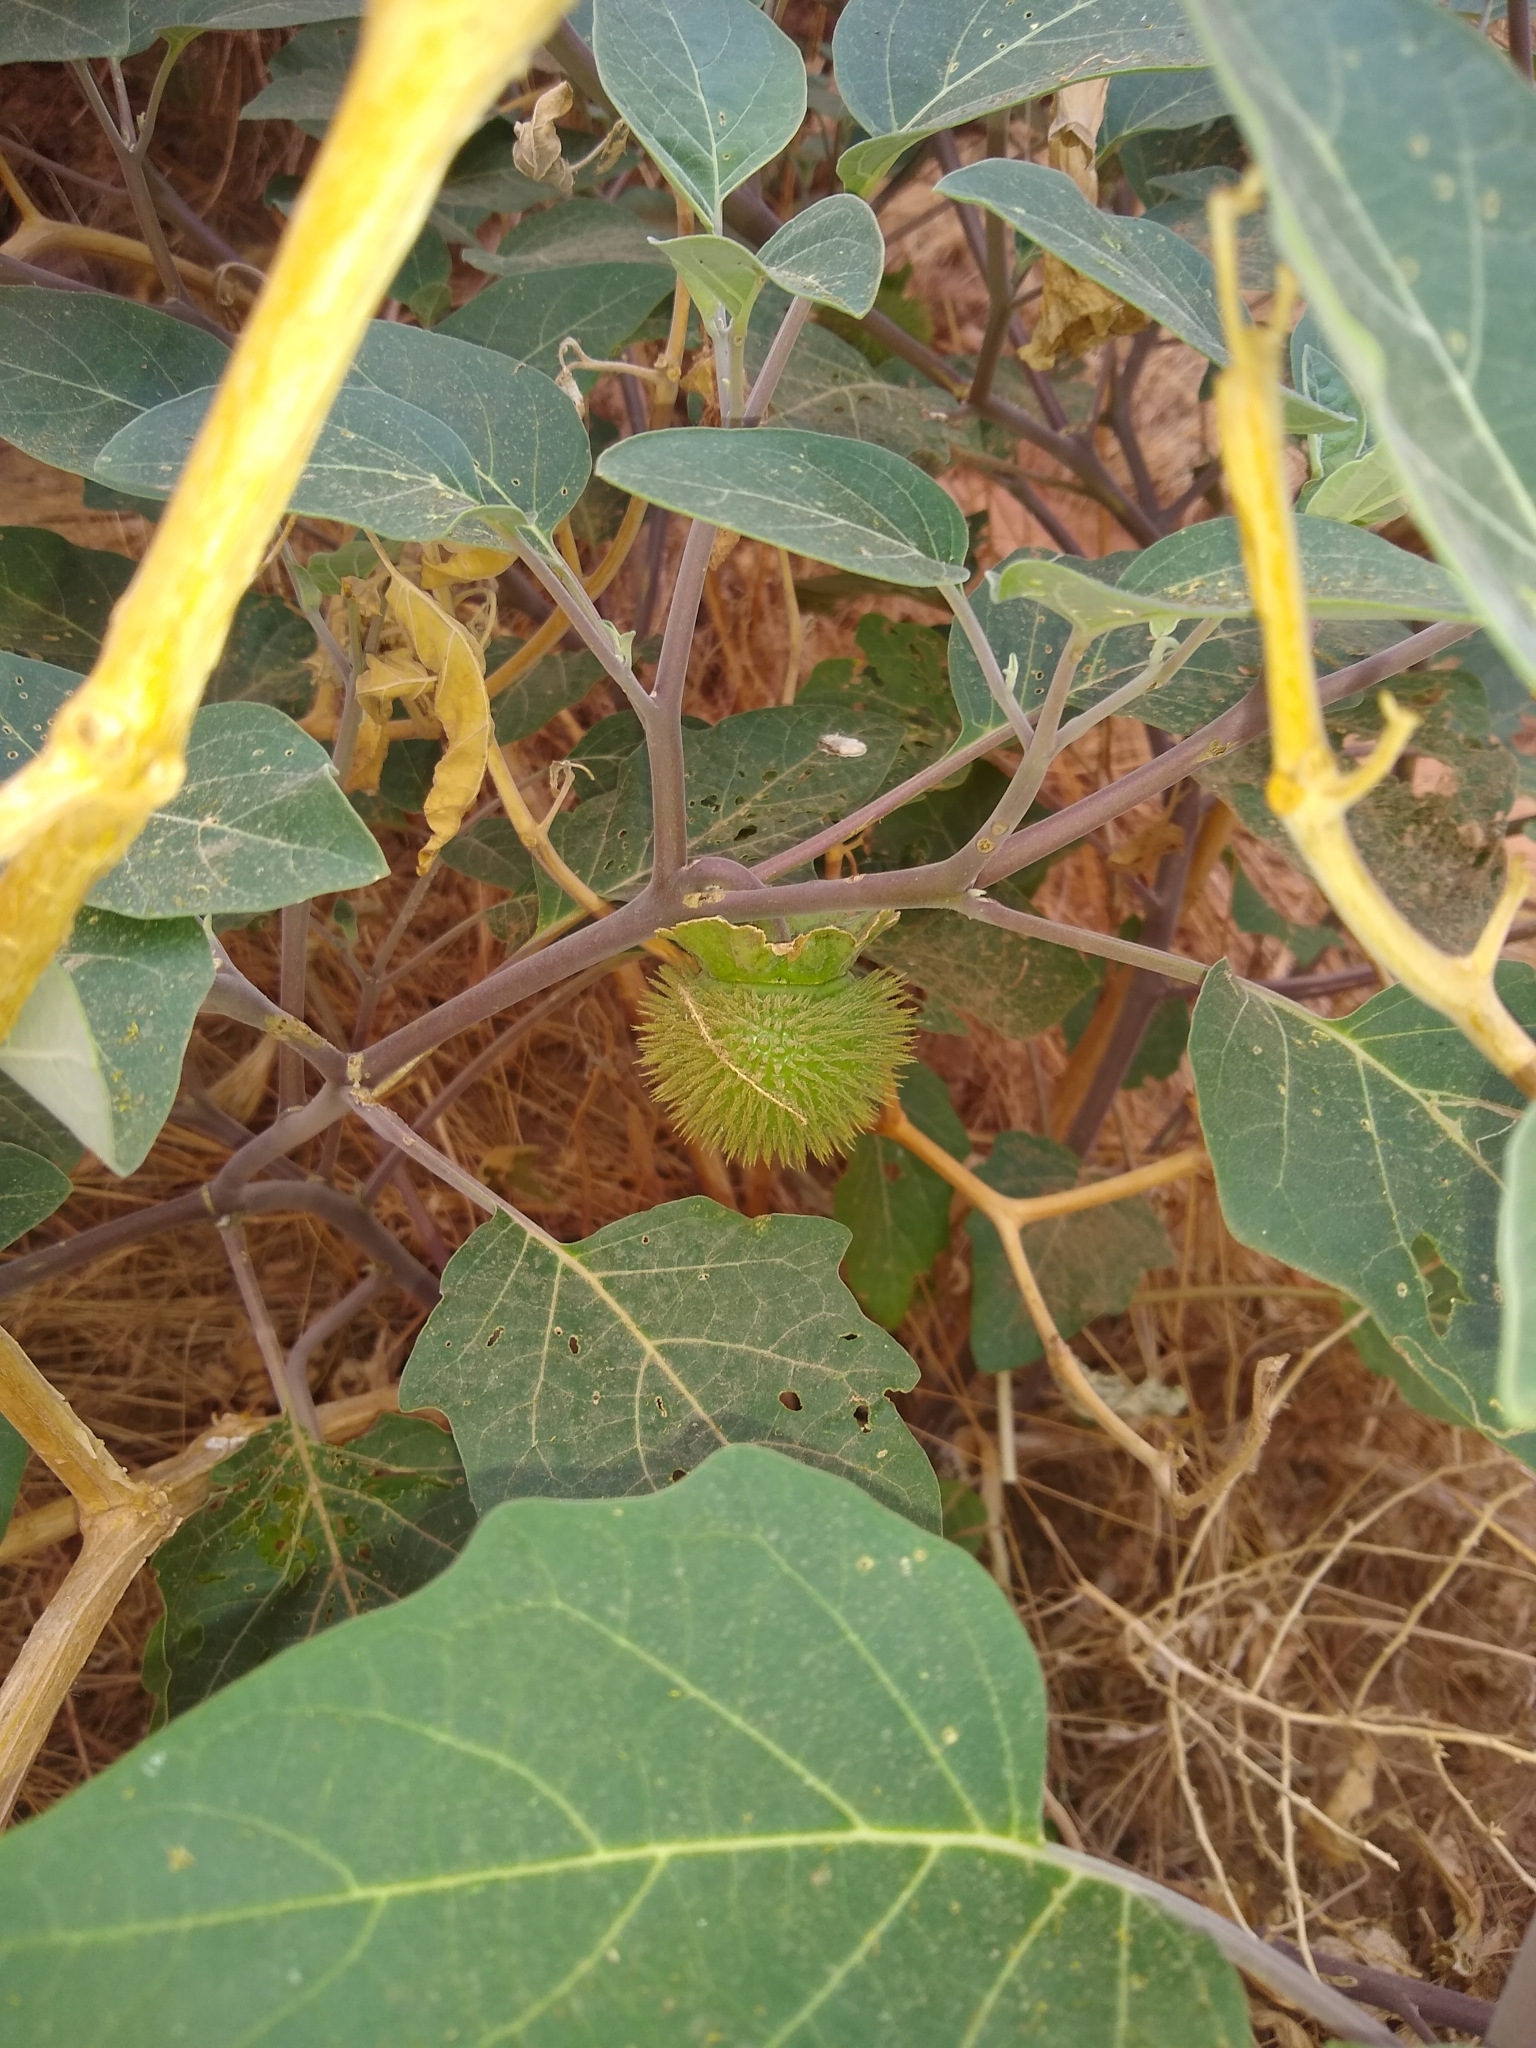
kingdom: Plantae
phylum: Tracheophyta
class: Magnoliopsida
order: Solanales
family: Solanaceae
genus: Datura
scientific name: Datura wrightii
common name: Sacred thorn-apple
